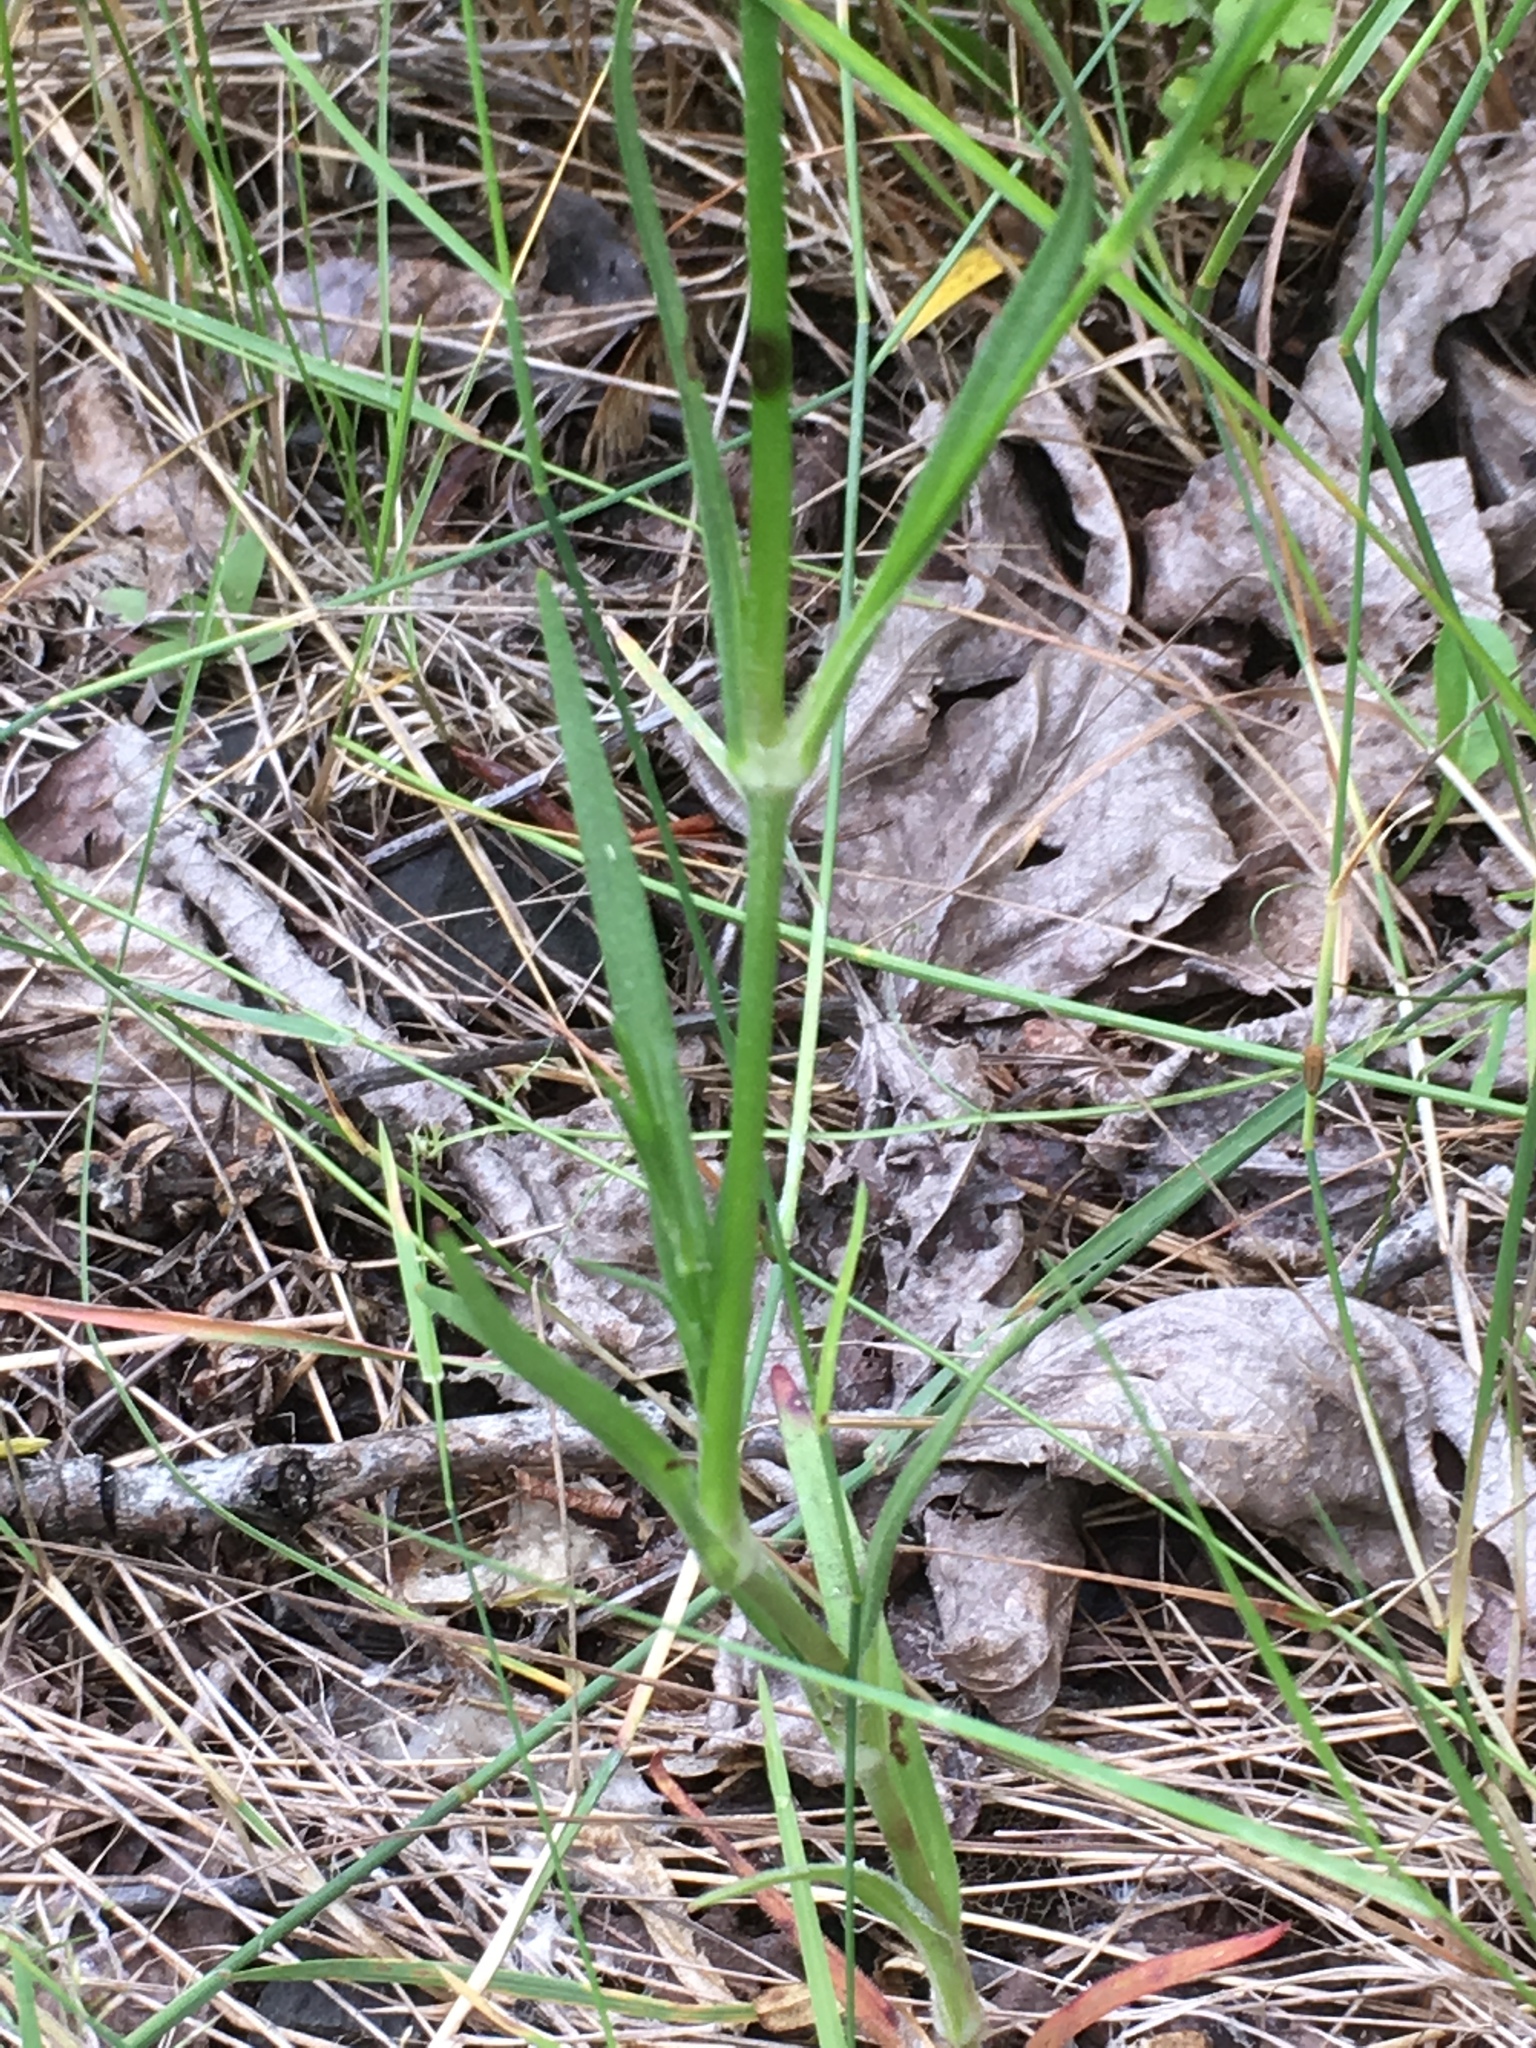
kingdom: Plantae
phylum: Tracheophyta
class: Magnoliopsida
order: Caryophyllales
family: Caryophyllaceae
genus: Dianthus
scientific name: Dianthus armeria
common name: Deptford pink
